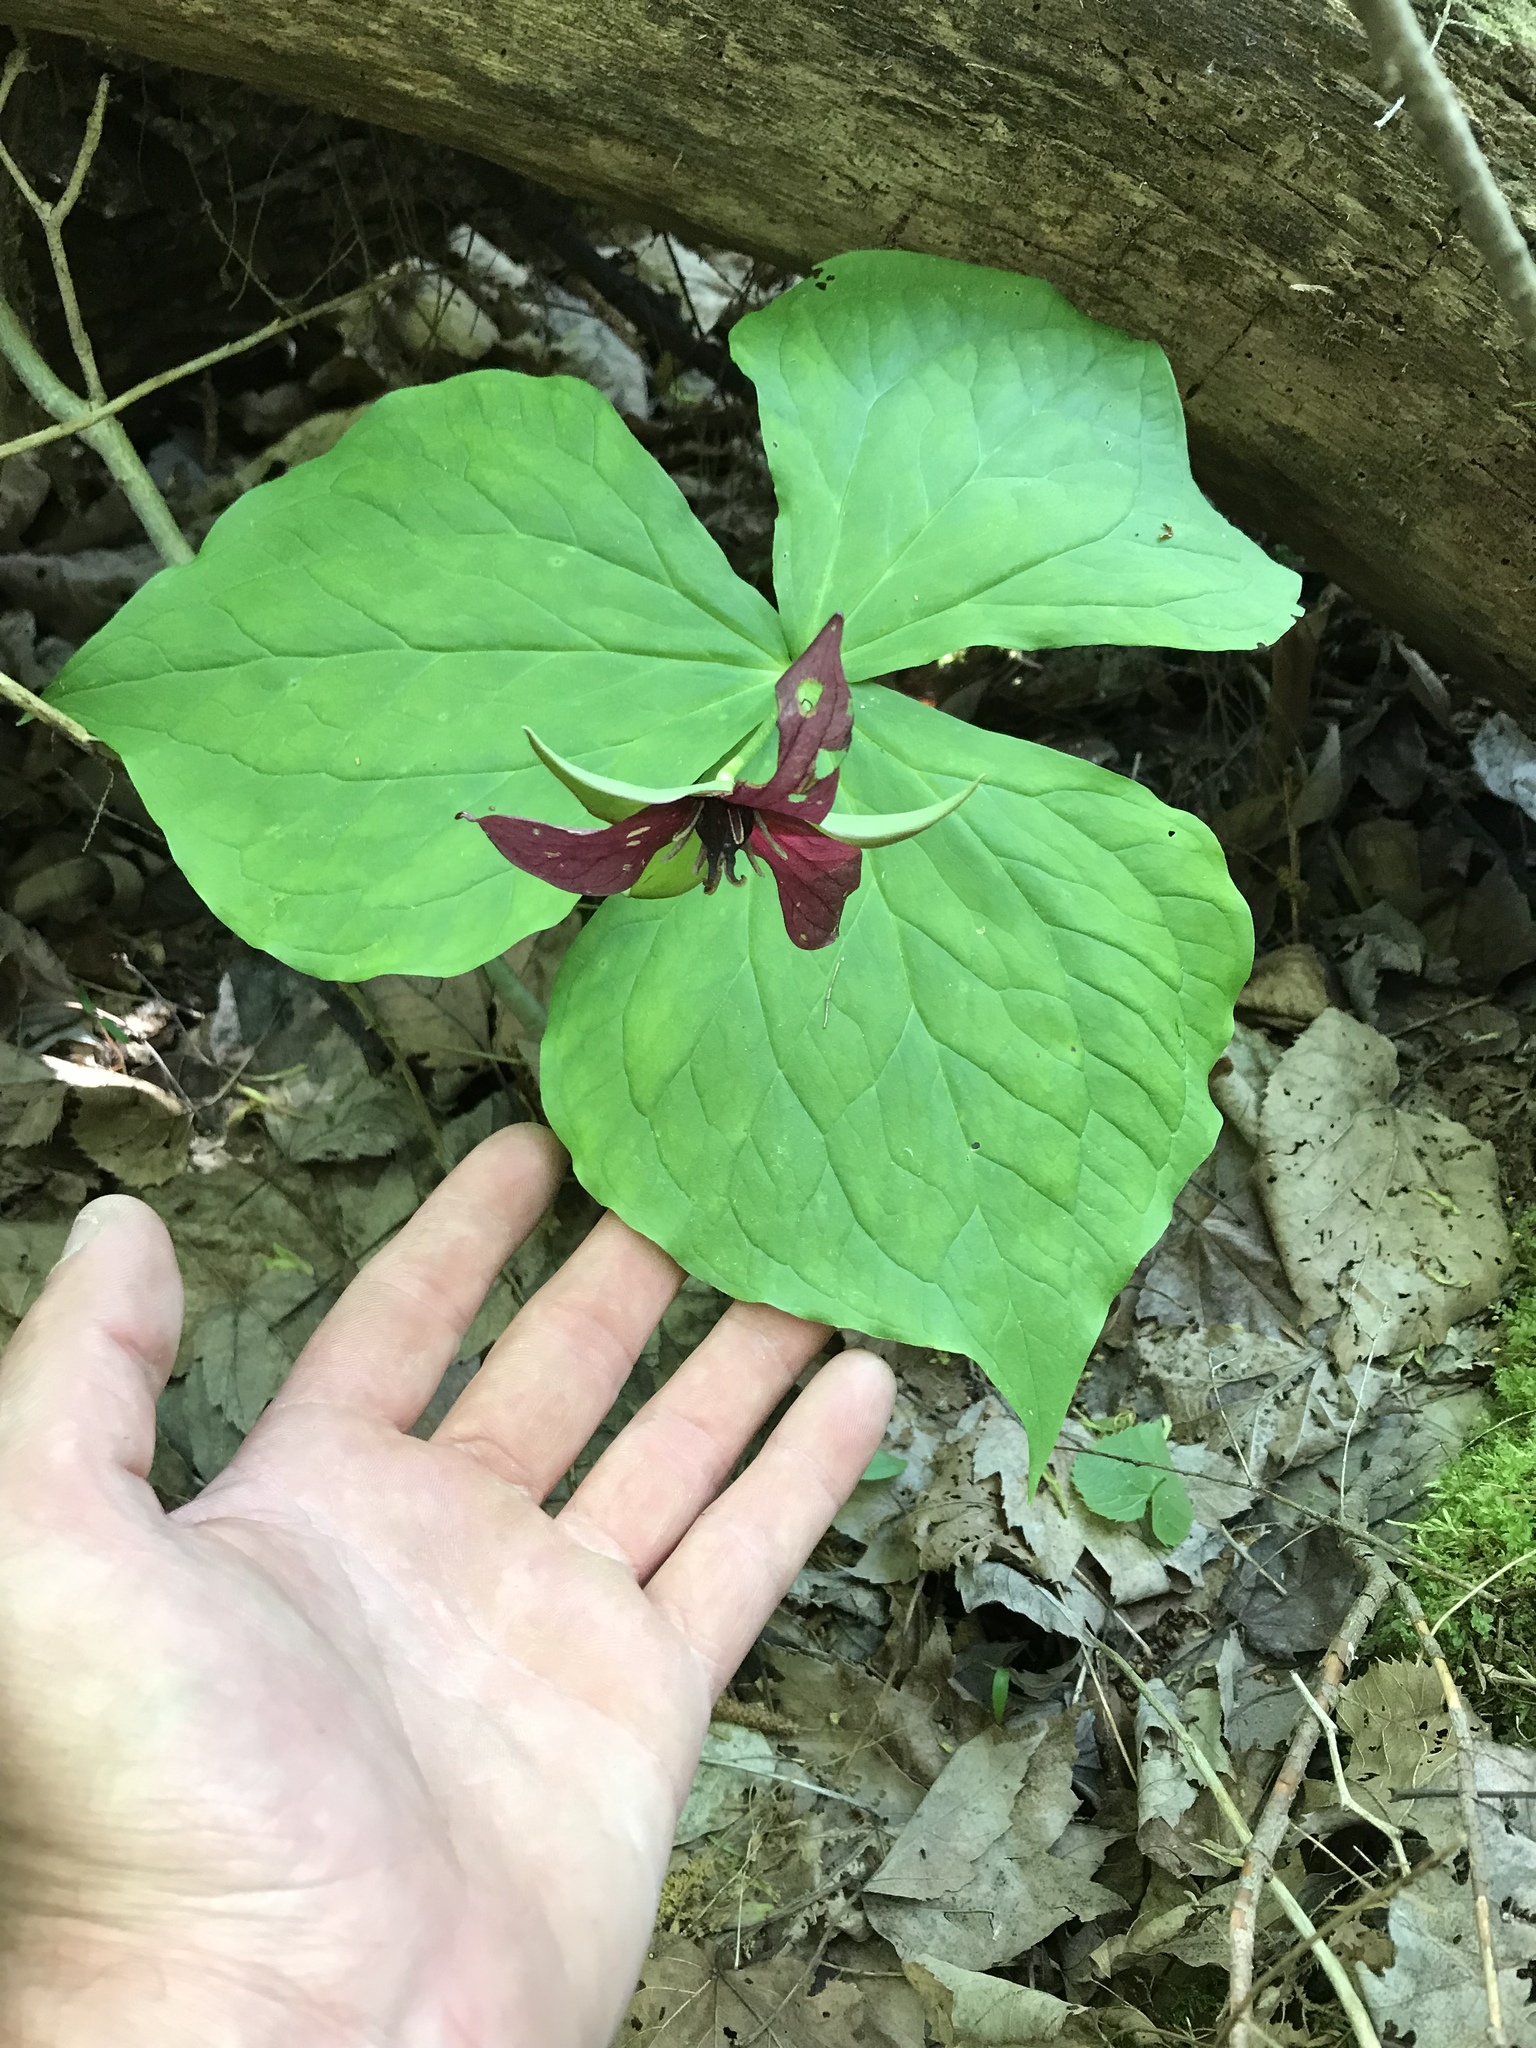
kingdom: Plantae
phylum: Tracheophyta
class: Liliopsida
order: Liliales
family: Melanthiaceae
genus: Trillium
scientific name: Trillium erectum
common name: Purple trillium
